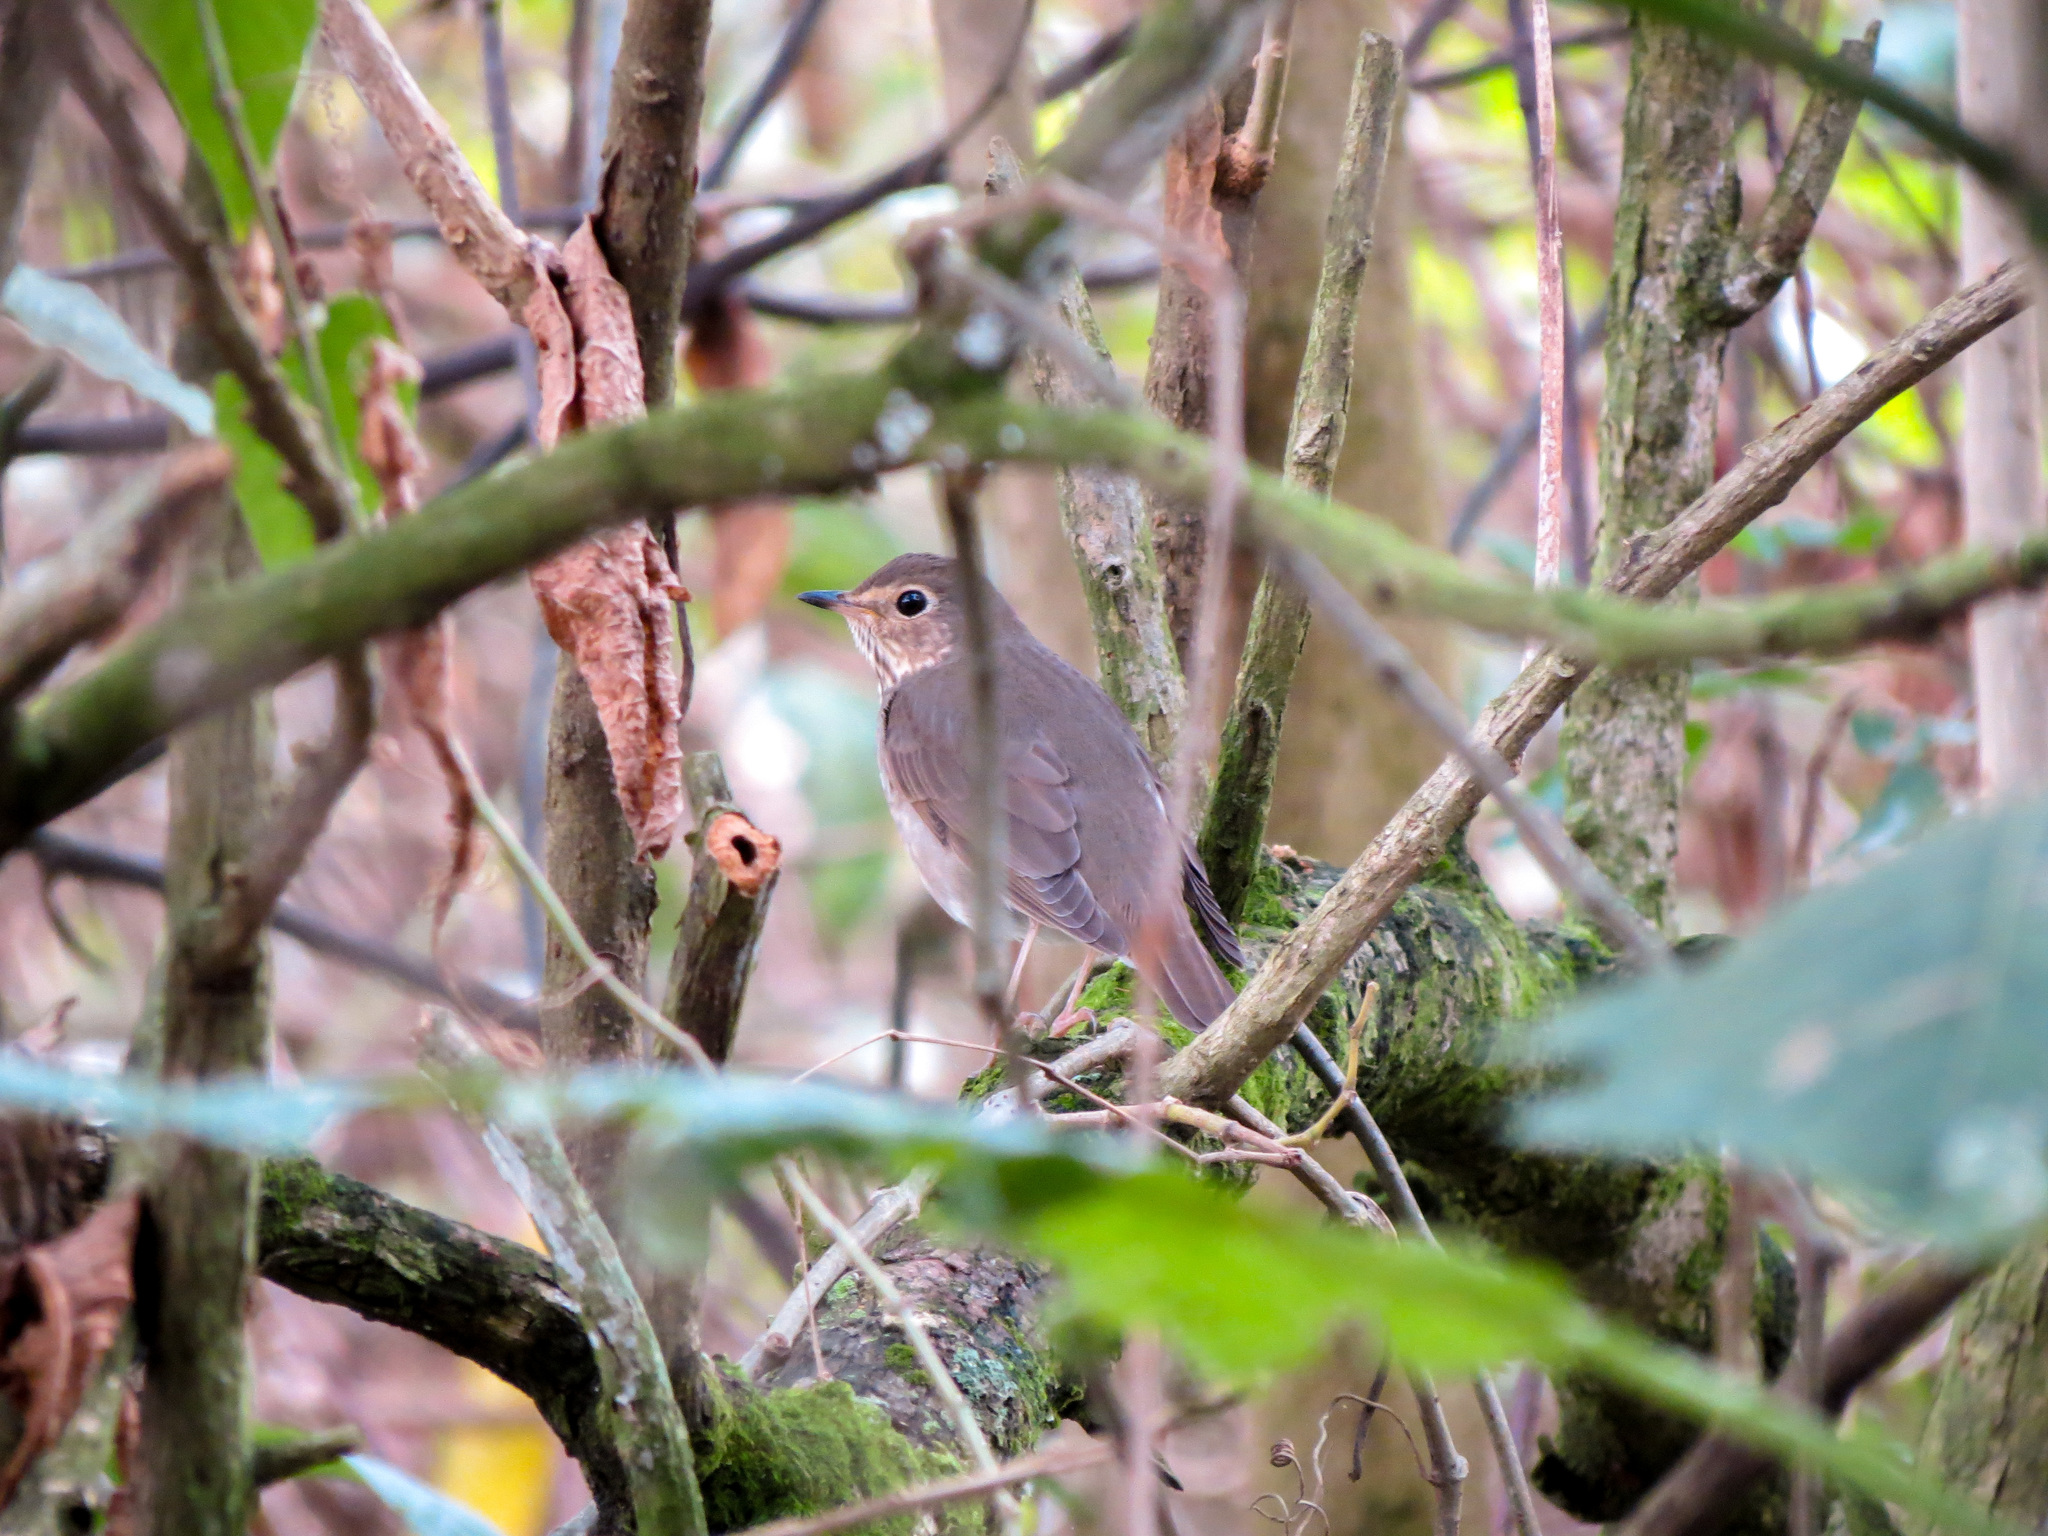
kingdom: Animalia
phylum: Chordata
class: Aves
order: Passeriformes
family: Turdidae
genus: Catharus
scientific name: Catharus ustulatus
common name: Swainson's thrush
